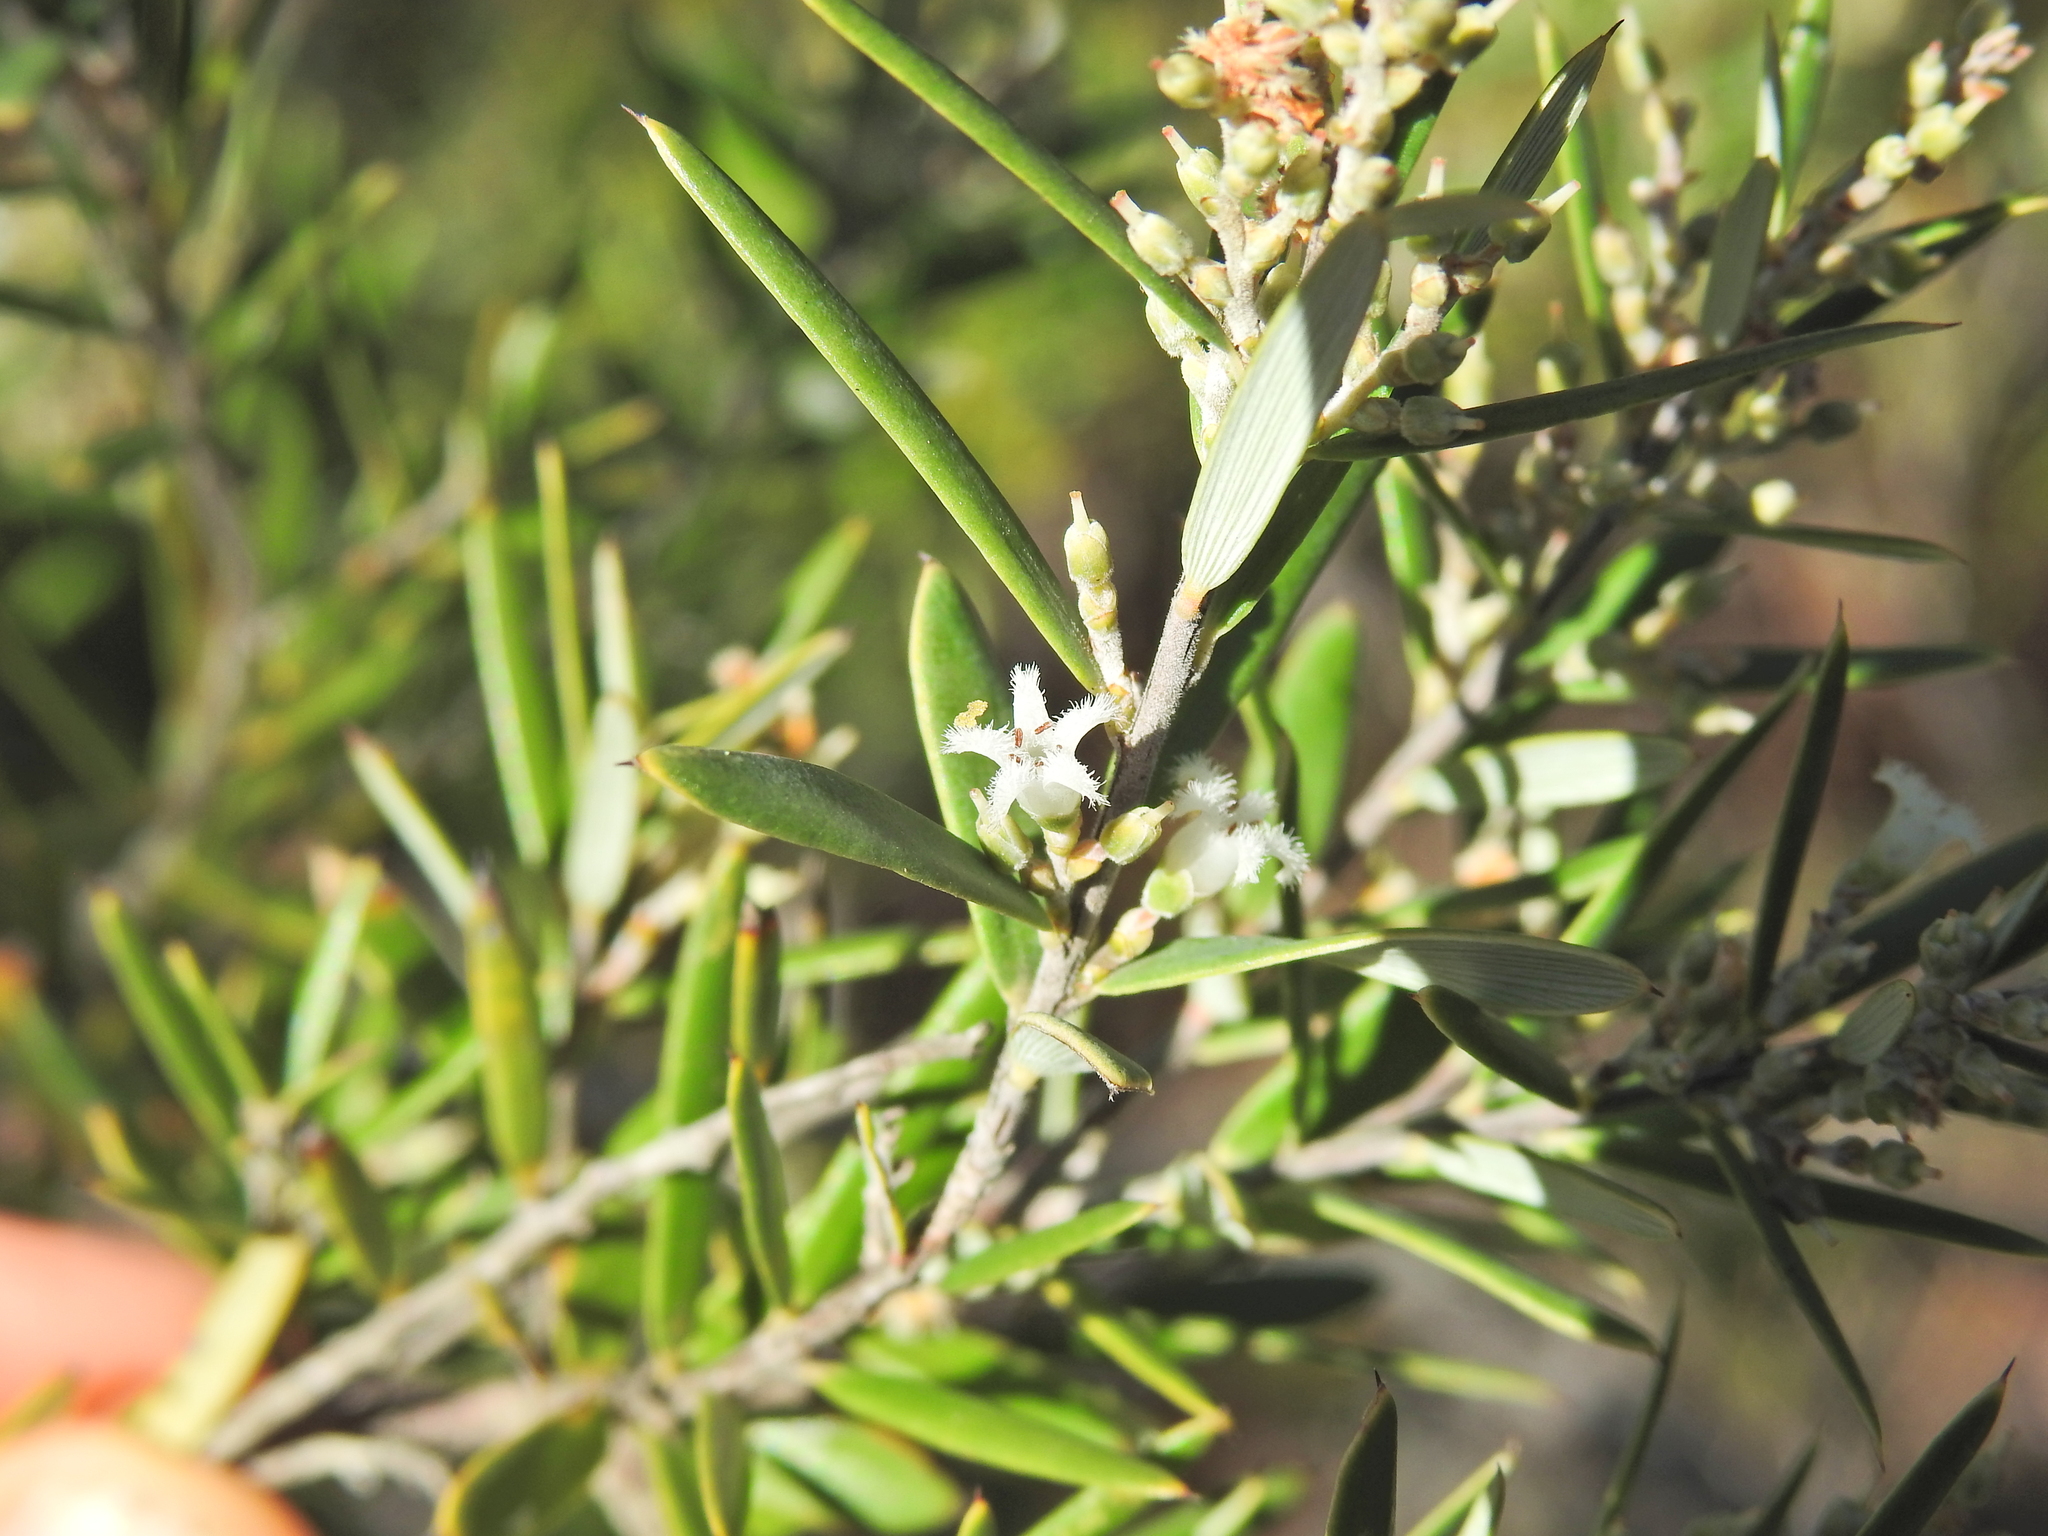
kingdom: Plantae
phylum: Tracheophyta
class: Magnoliopsida
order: Ericales
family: Ericaceae
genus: Agiortia
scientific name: Agiortia pedicellata
